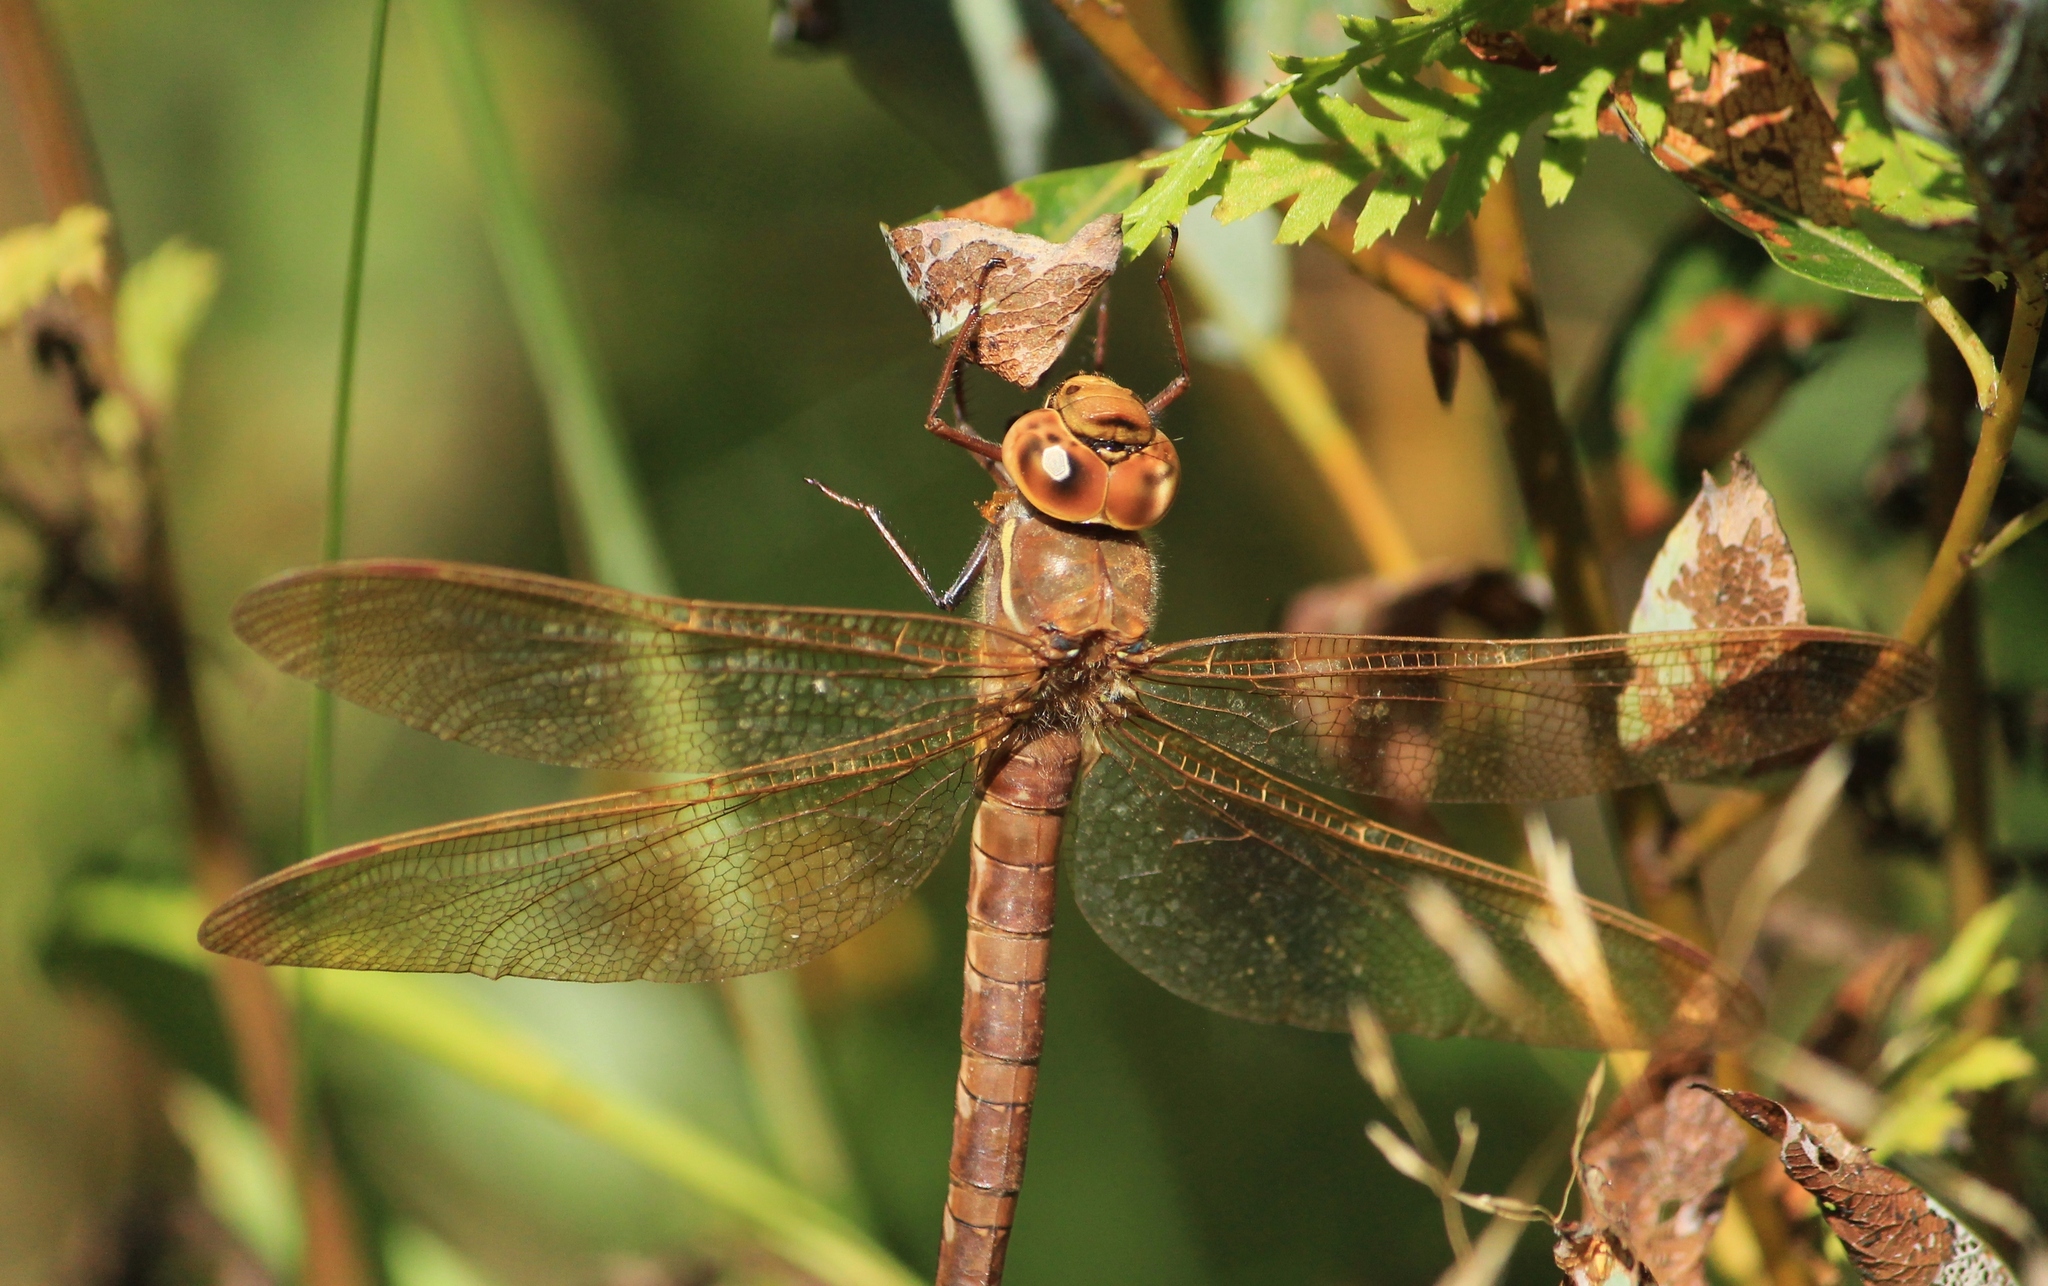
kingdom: Animalia
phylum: Arthropoda
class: Insecta
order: Odonata
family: Aeshnidae
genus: Aeshna
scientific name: Aeshna grandis
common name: Brown hawker
